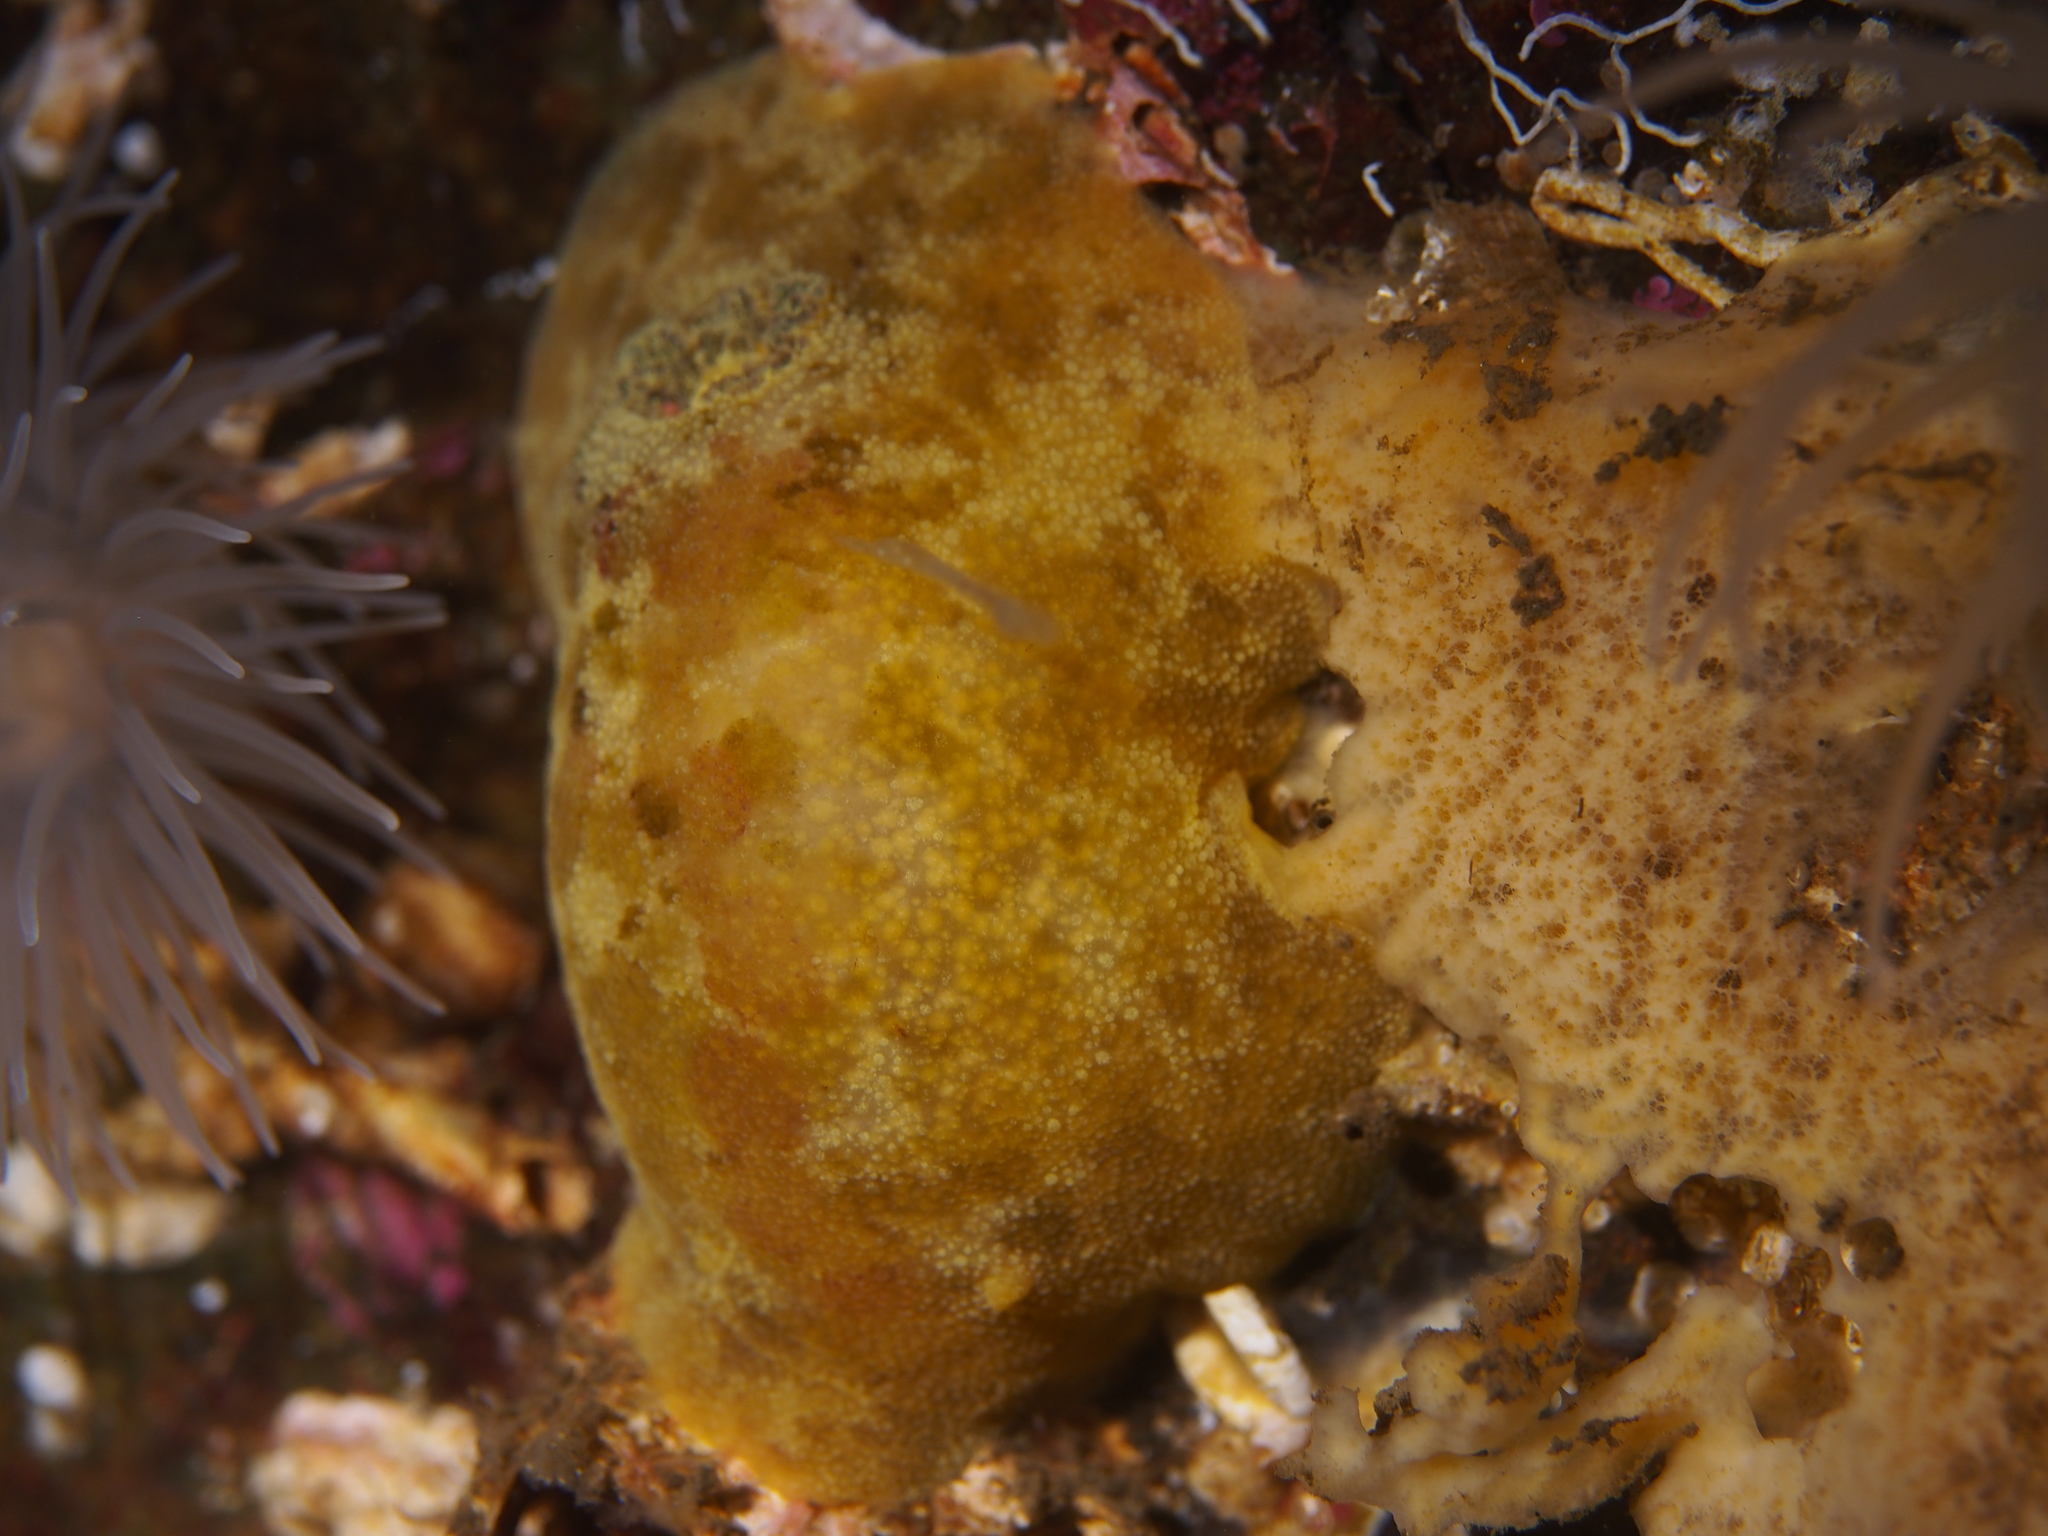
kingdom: Animalia
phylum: Mollusca
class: Gastropoda
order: Nudibranchia
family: Dorididae
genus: Doris
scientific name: Doris pseudoargus
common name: Sea lemon
